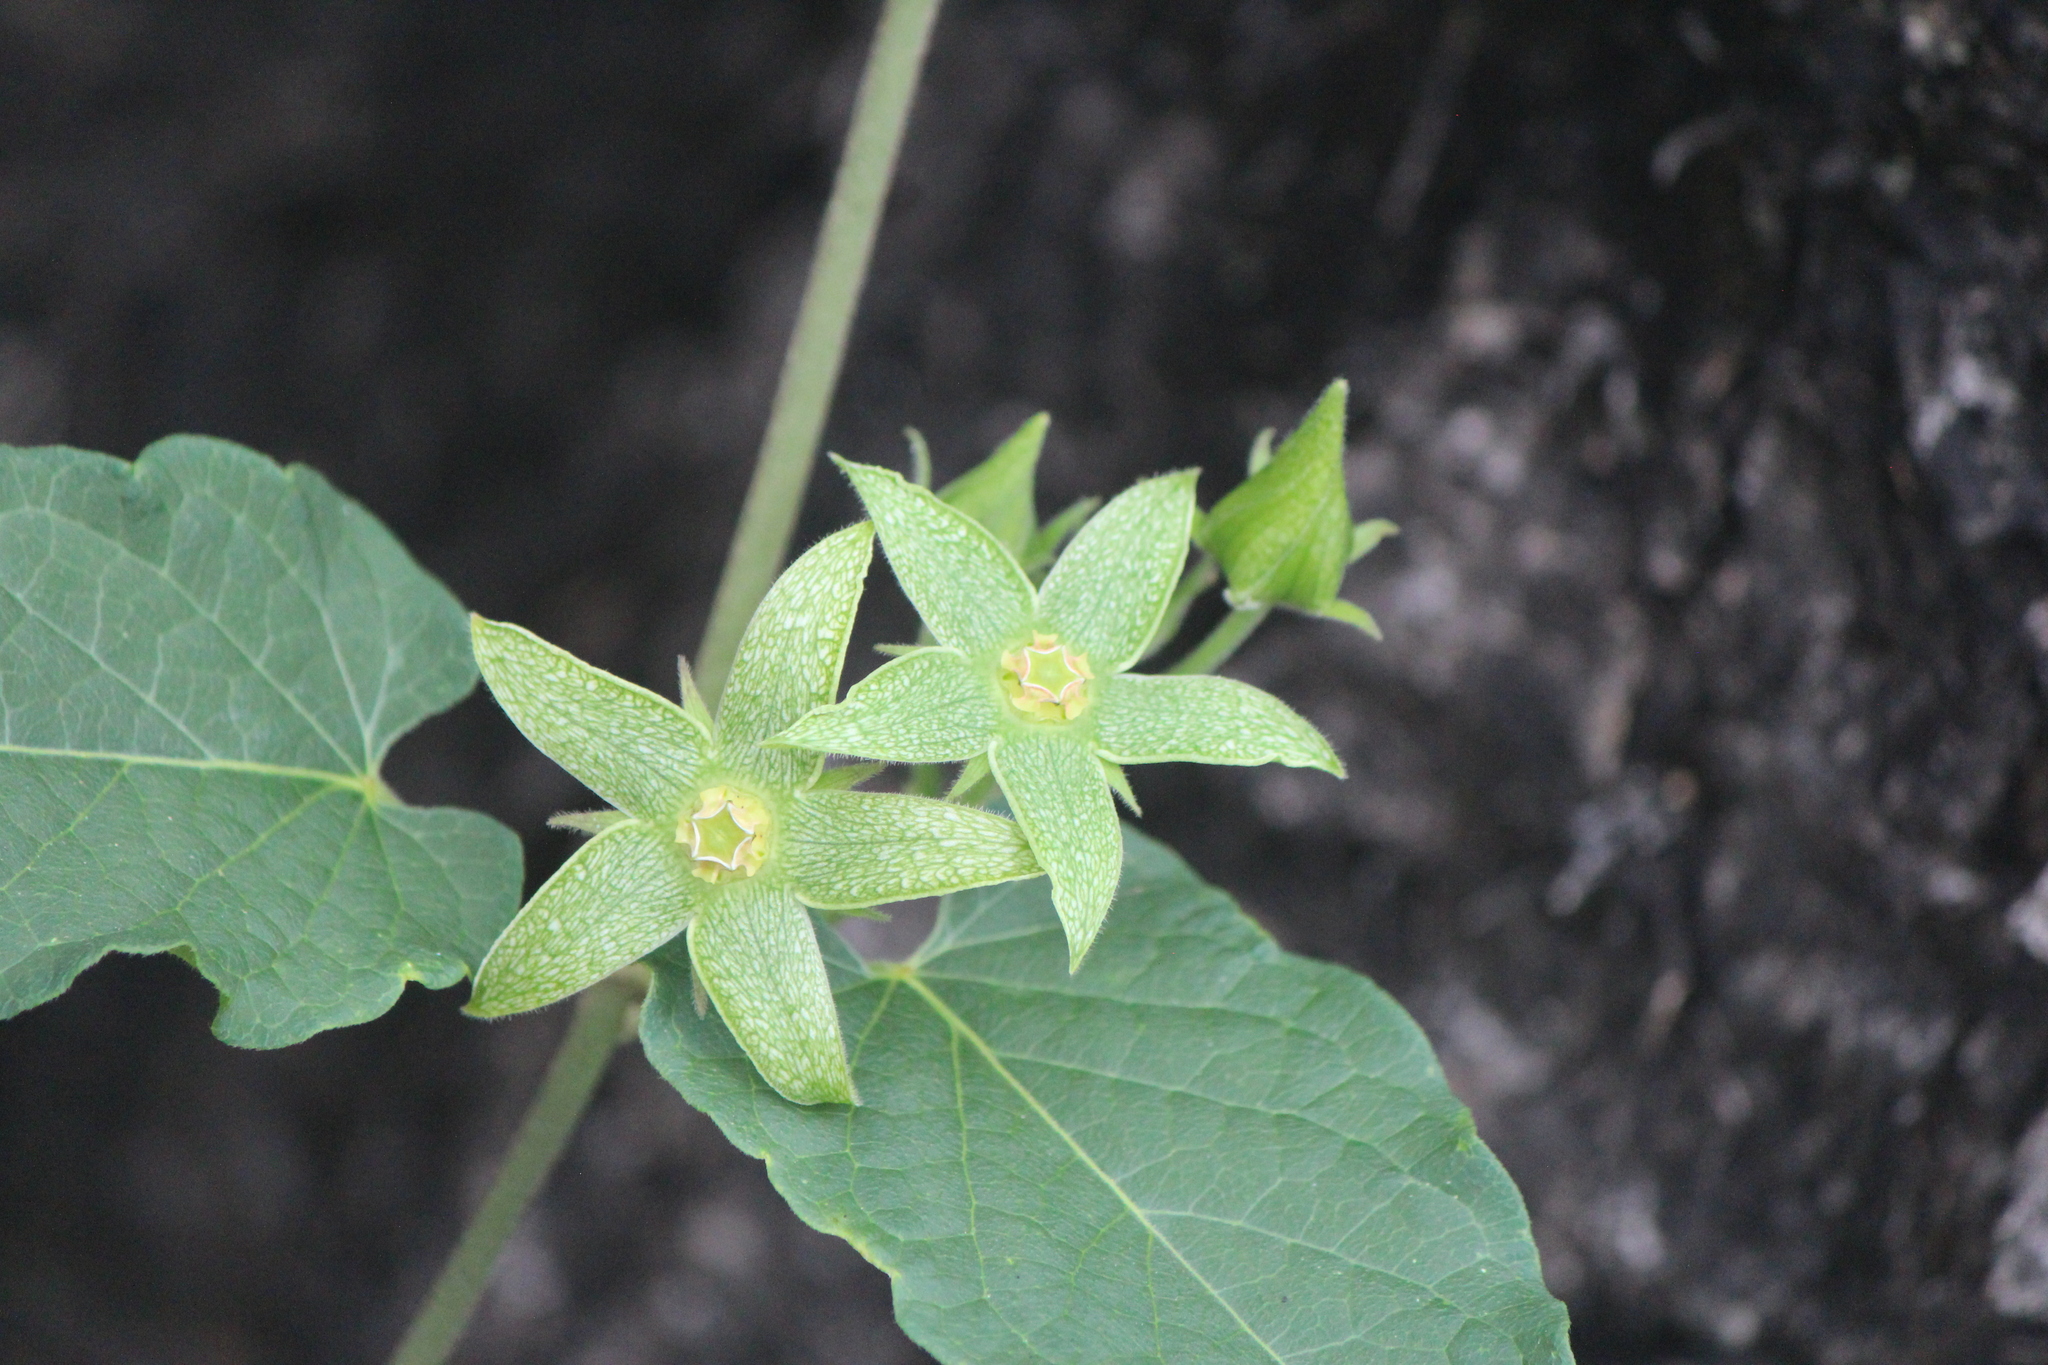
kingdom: Plantae
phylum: Tracheophyta
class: Magnoliopsida
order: Gentianales
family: Apocynaceae
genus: Gonolobus
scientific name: Gonolobus grandiflorus
